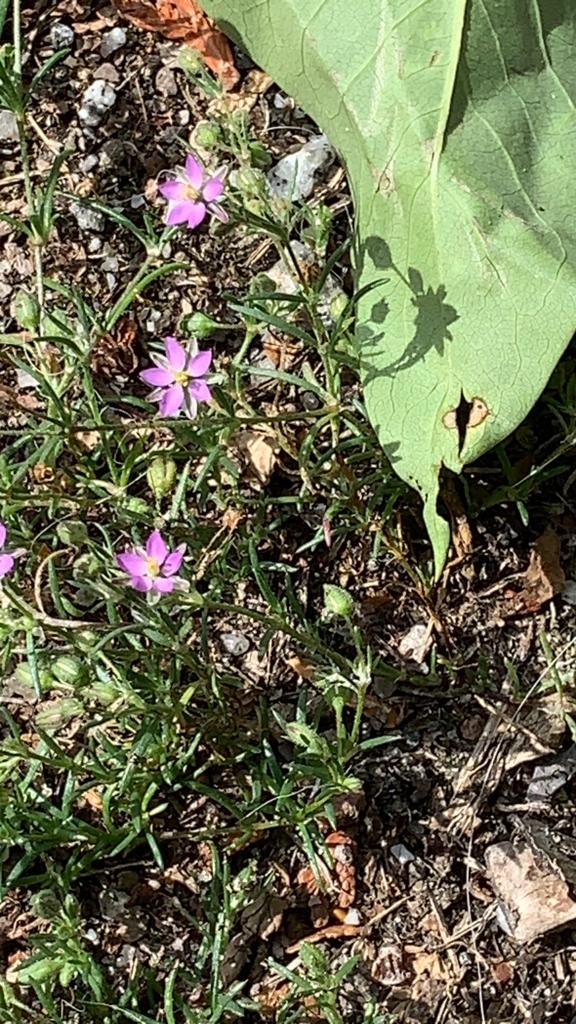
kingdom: Plantae
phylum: Tracheophyta
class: Magnoliopsida
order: Caryophyllales
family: Caryophyllaceae
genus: Spergularia
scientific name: Spergularia rubra
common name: Red sand-spurrey
